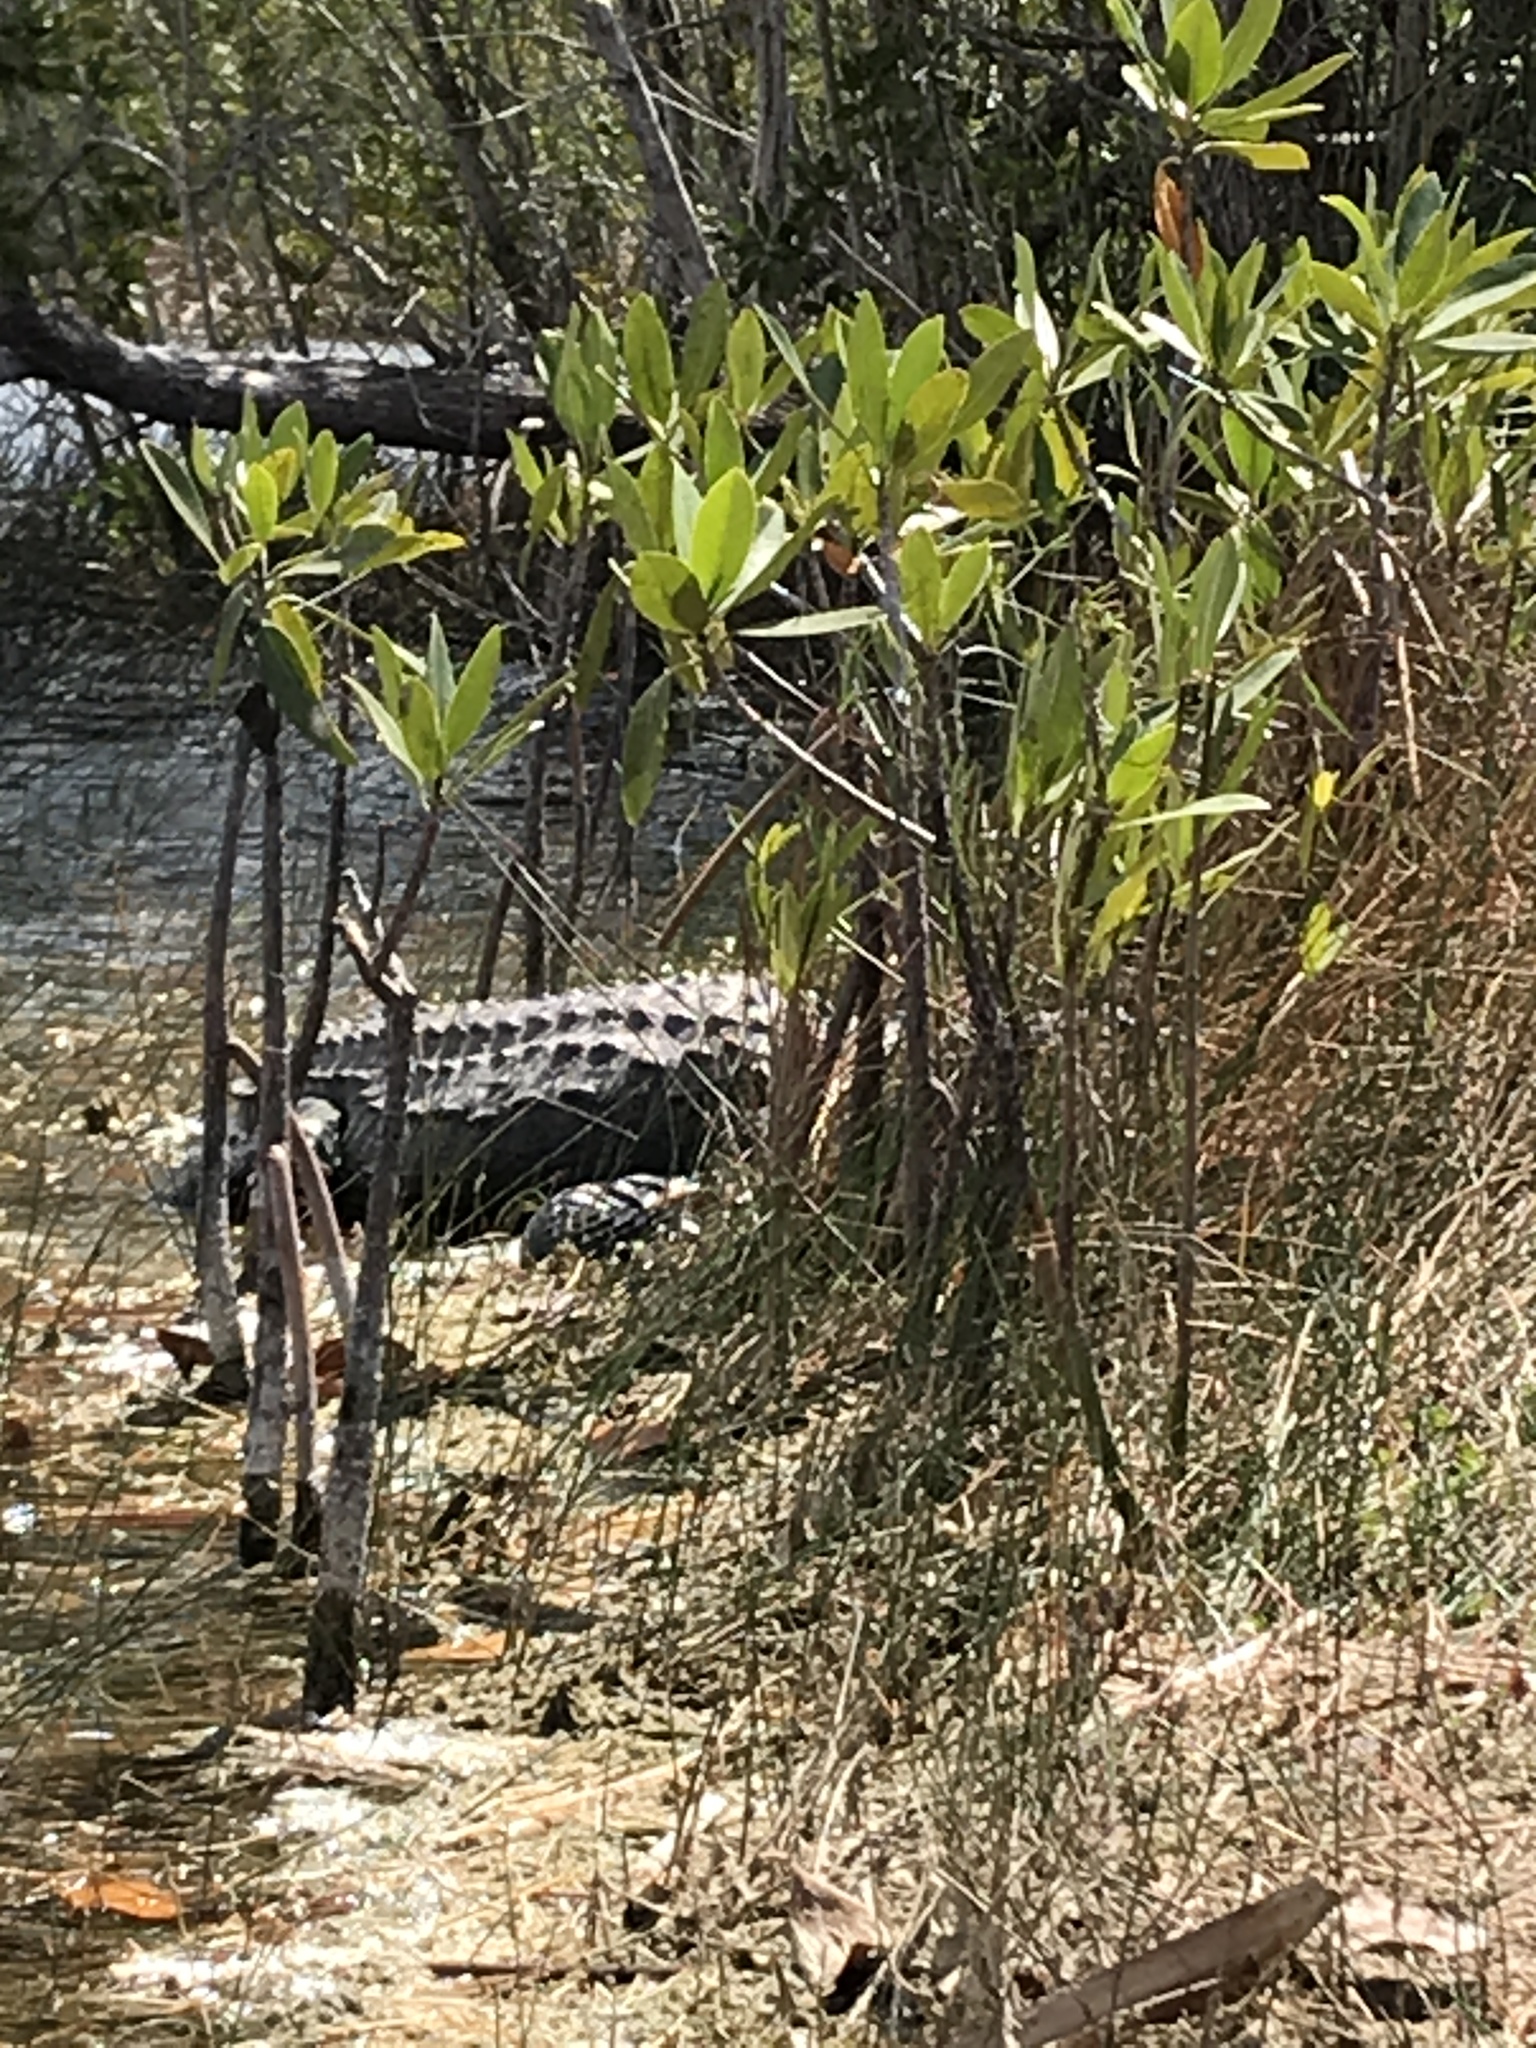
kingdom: Animalia
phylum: Chordata
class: Crocodylia
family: Alligatoridae
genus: Alligator
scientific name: Alligator mississippiensis
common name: American alligator
